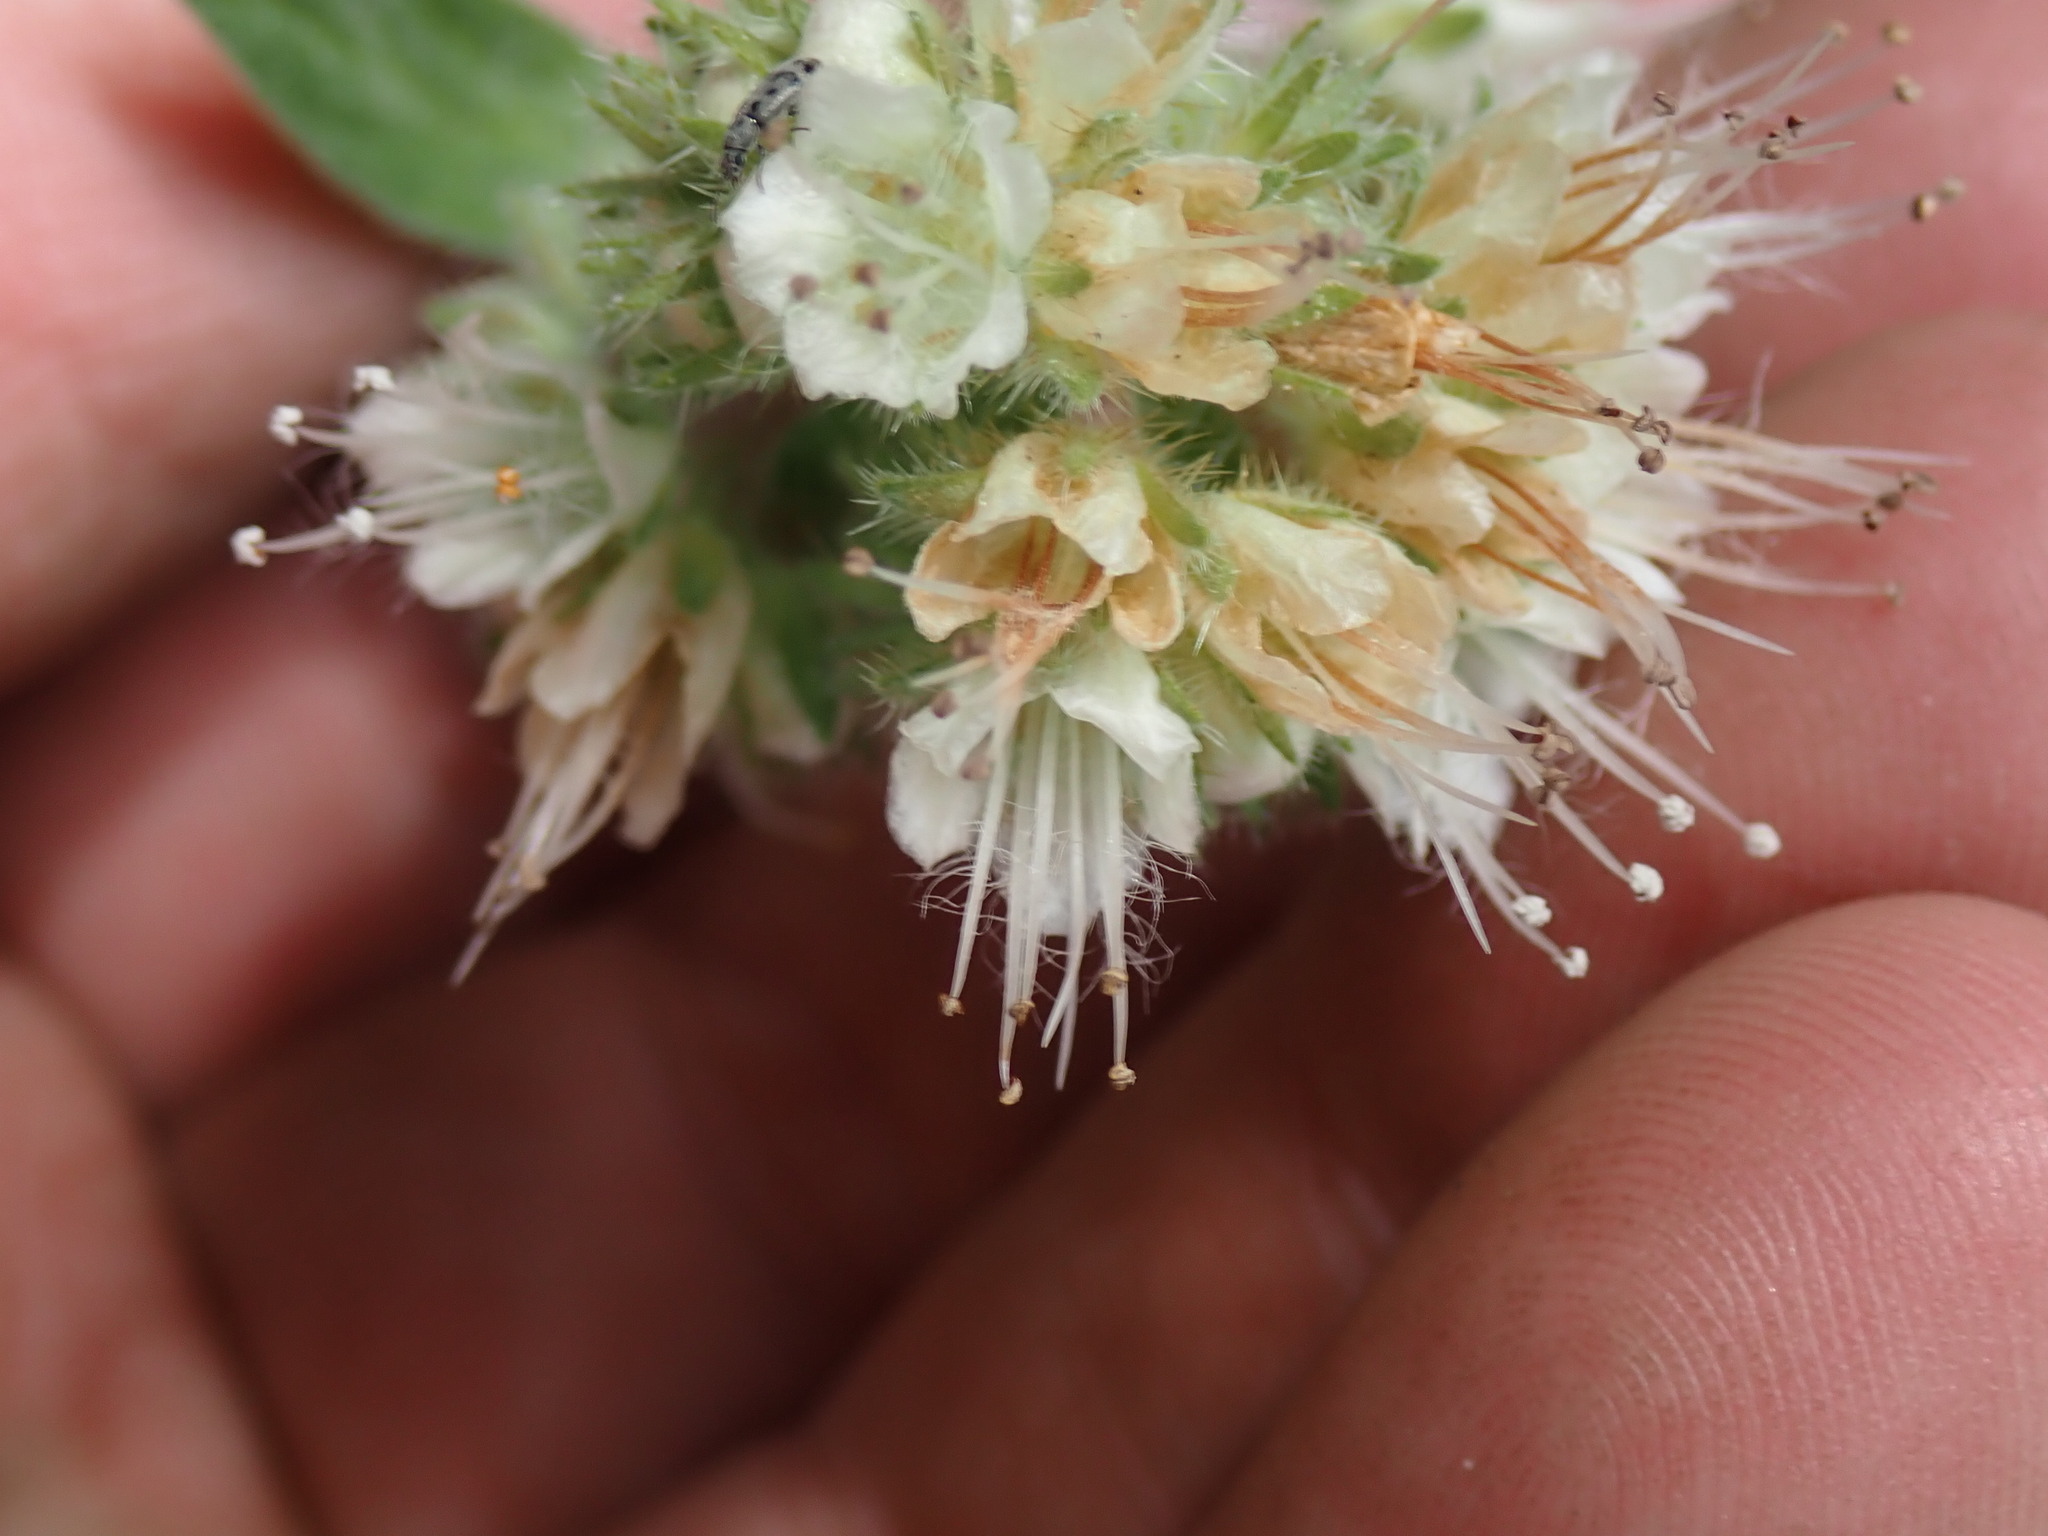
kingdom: Plantae
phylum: Tracheophyta
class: Magnoliopsida
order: Boraginales
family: Hydrophyllaceae
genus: Phacelia
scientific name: Phacelia hastata
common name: Silver-leaved phacelia
